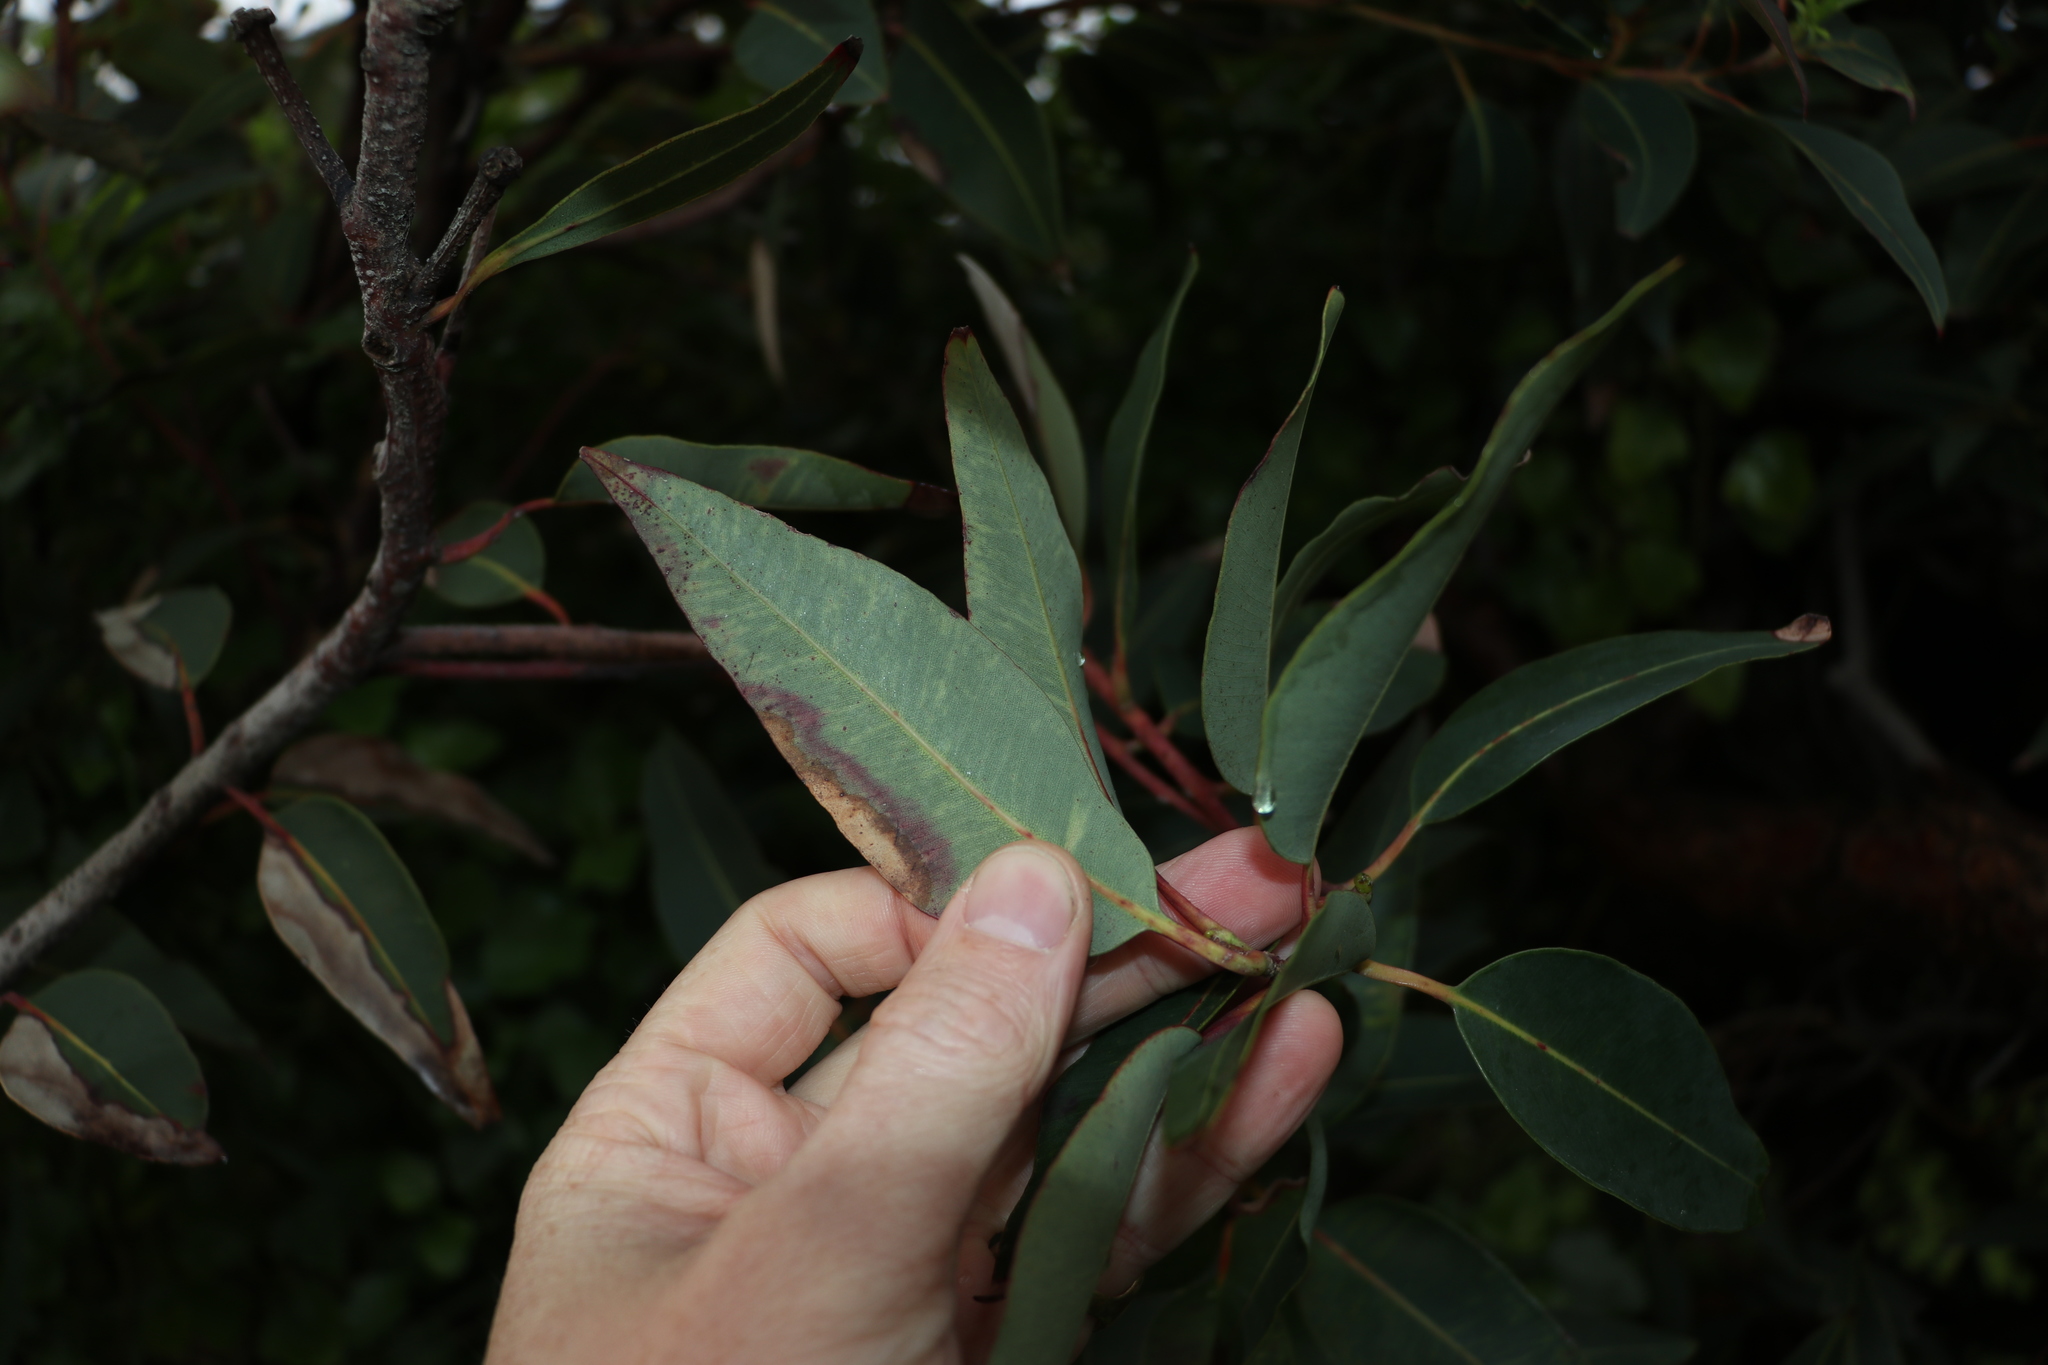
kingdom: Plantae
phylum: Tracheophyta
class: Magnoliopsida
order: Myrtales
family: Myrtaceae
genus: Corymbia
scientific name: Corymbia ficifolia
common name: Redflower gum
